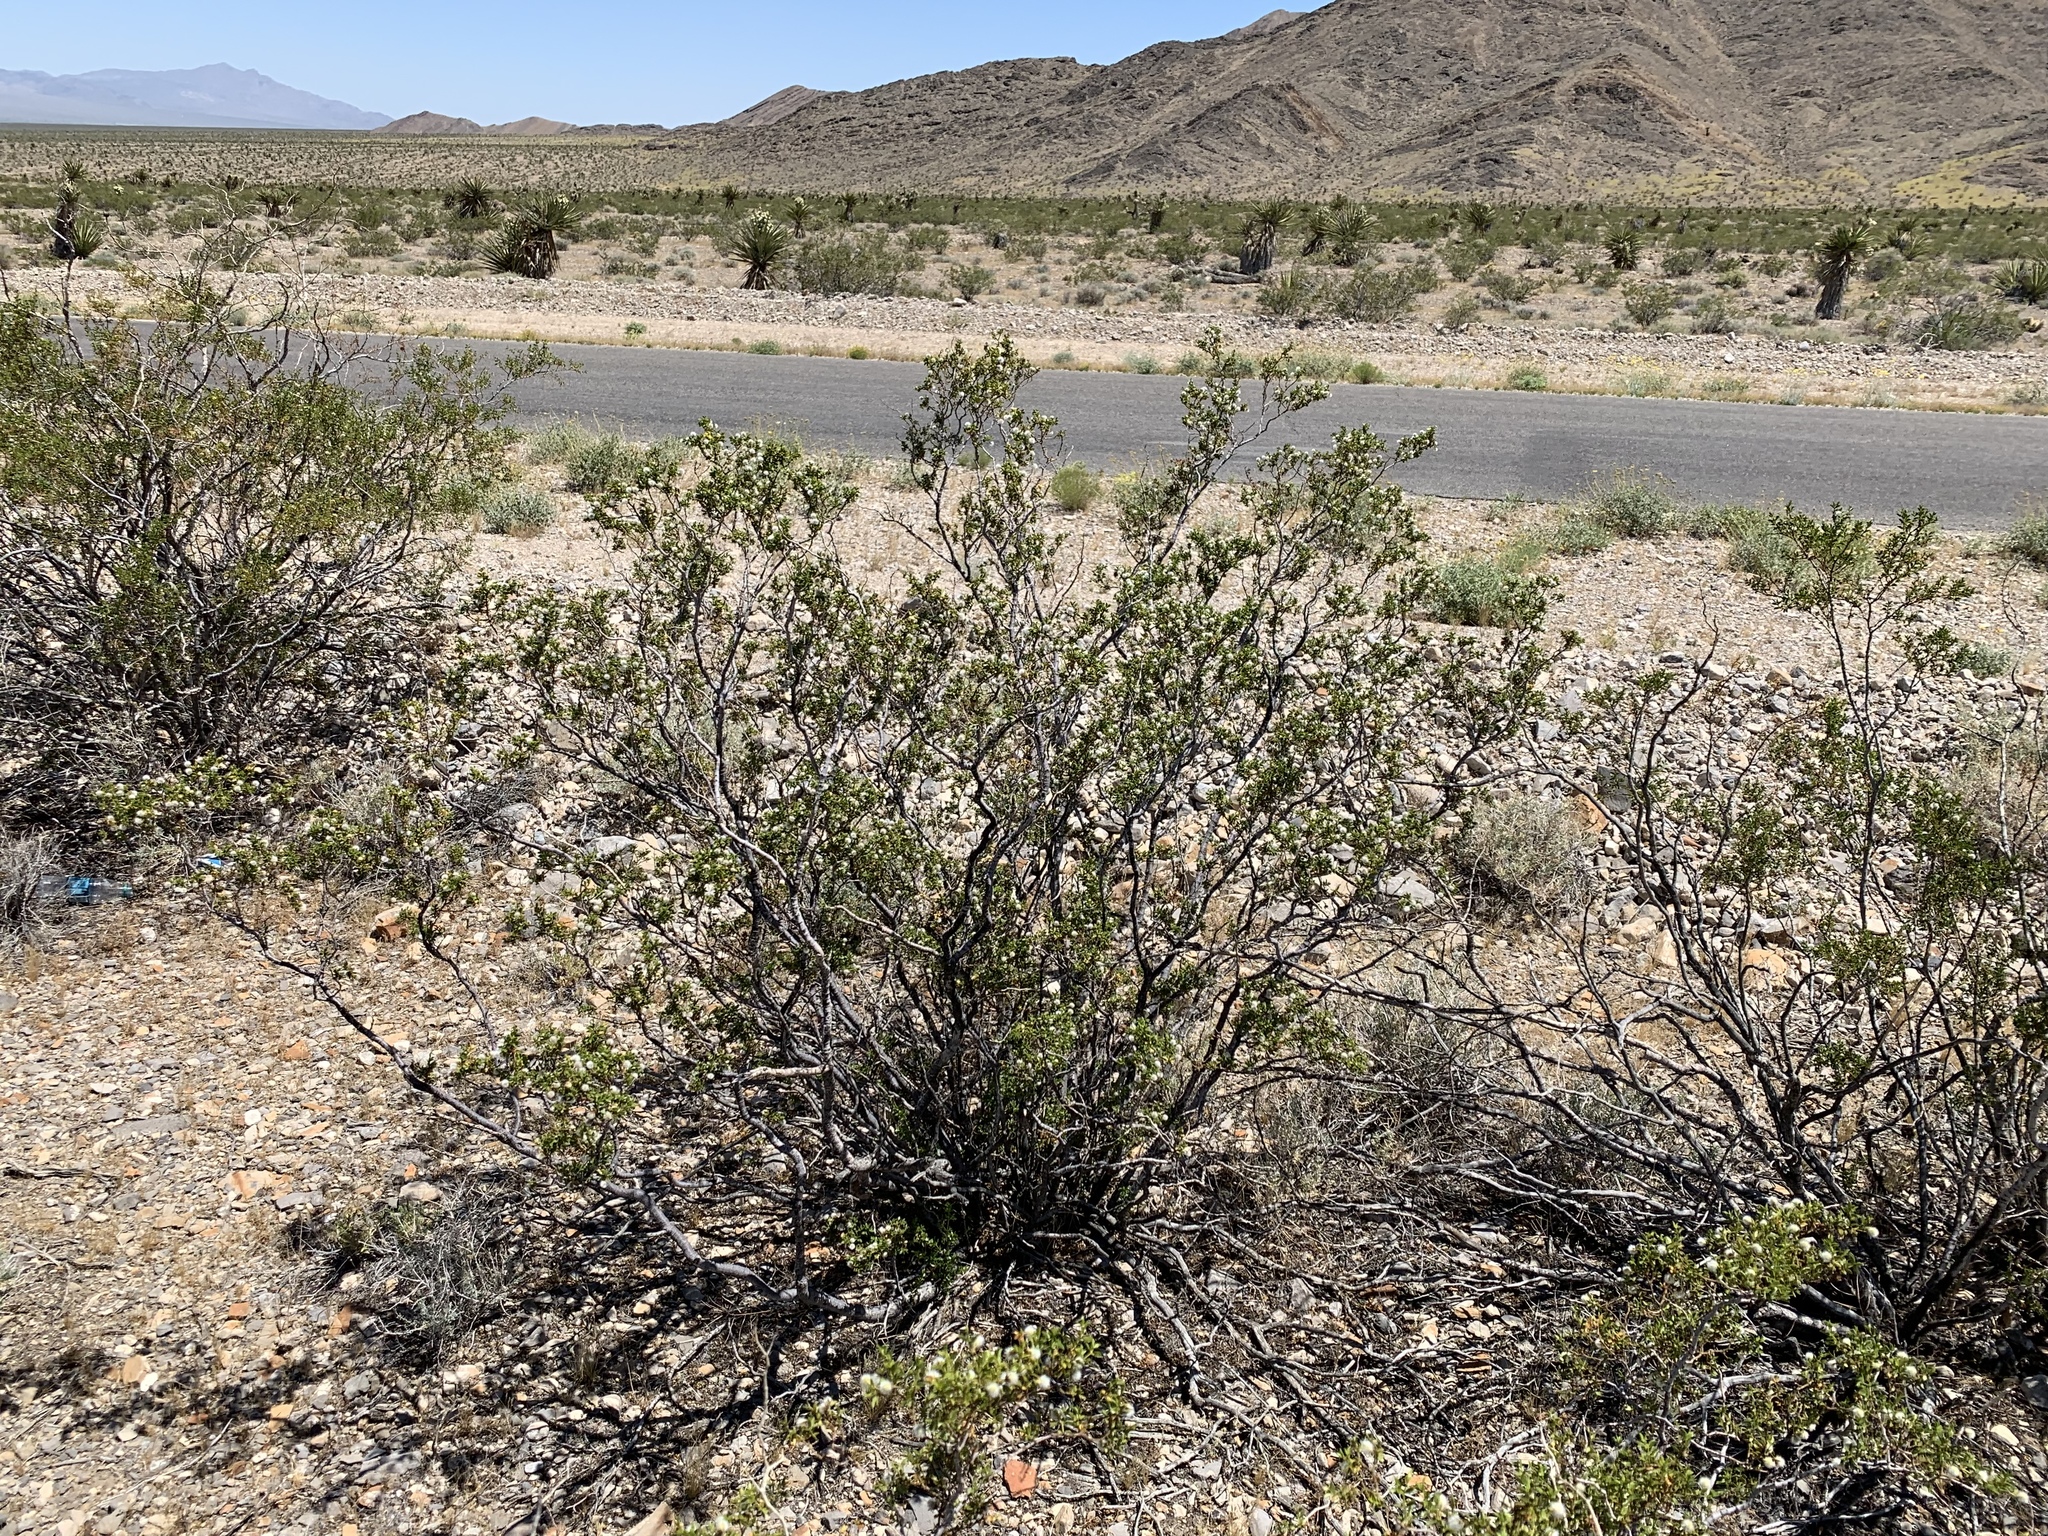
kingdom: Plantae
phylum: Tracheophyta
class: Magnoliopsida
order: Zygophyllales
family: Zygophyllaceae
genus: Larrea
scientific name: Larrea tridentata
